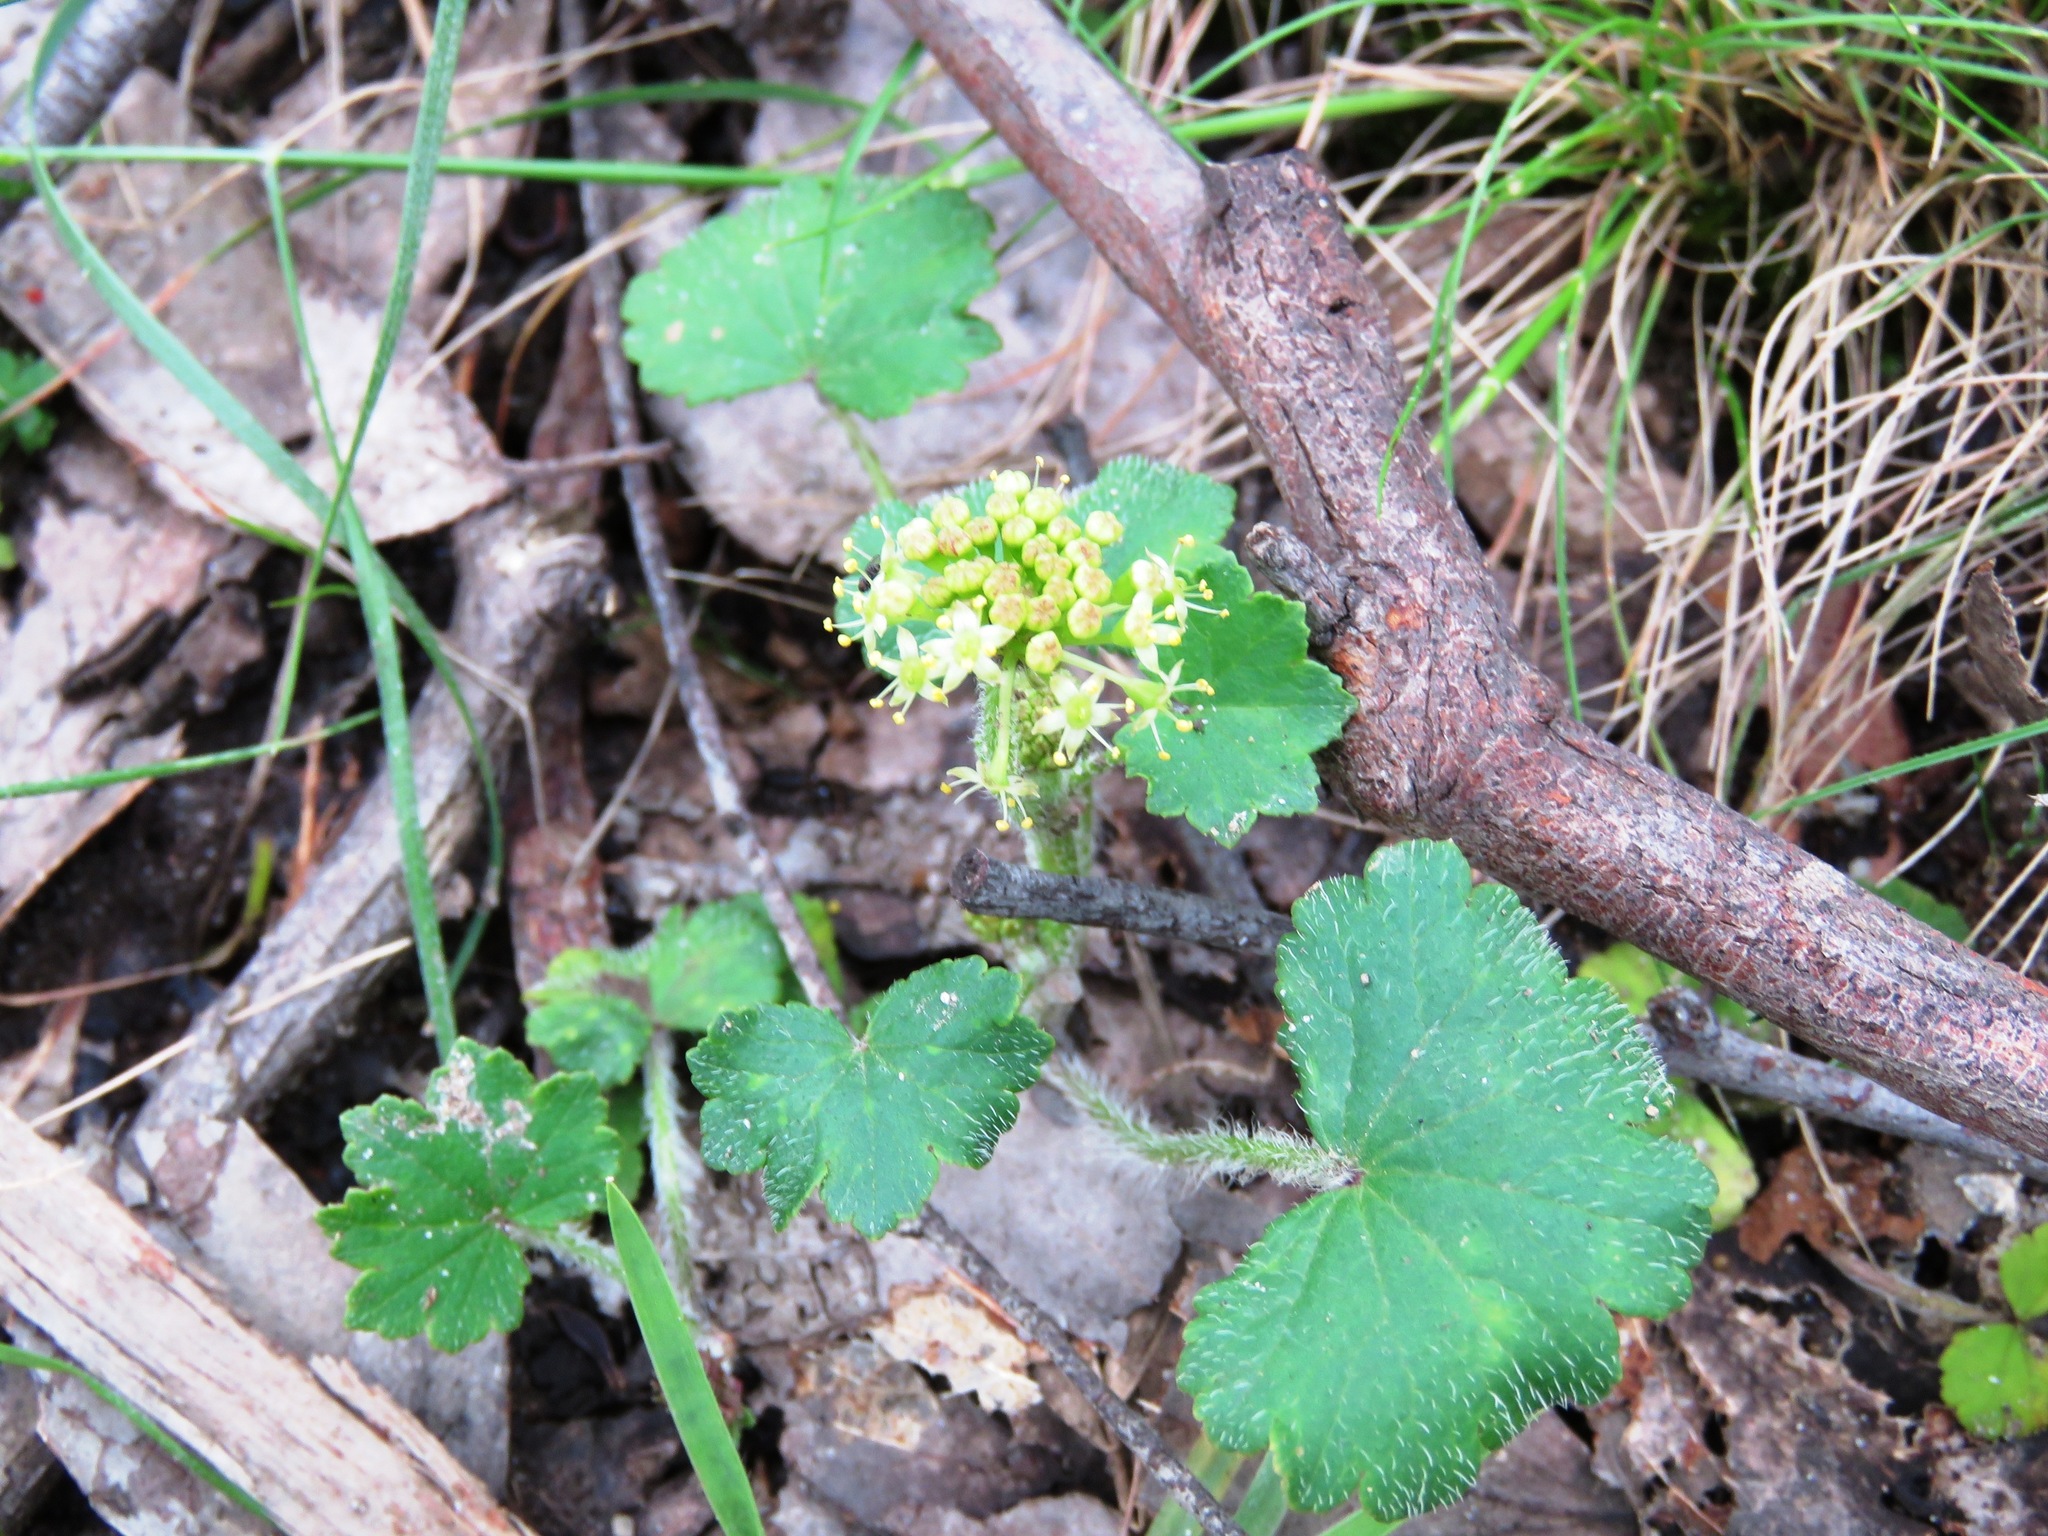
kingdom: Plantae
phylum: Tracheophyta
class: Magnoliopsida
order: Apiales
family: Araliaceae
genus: Hydrocotyle
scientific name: Hydrocotyle laxiflora
